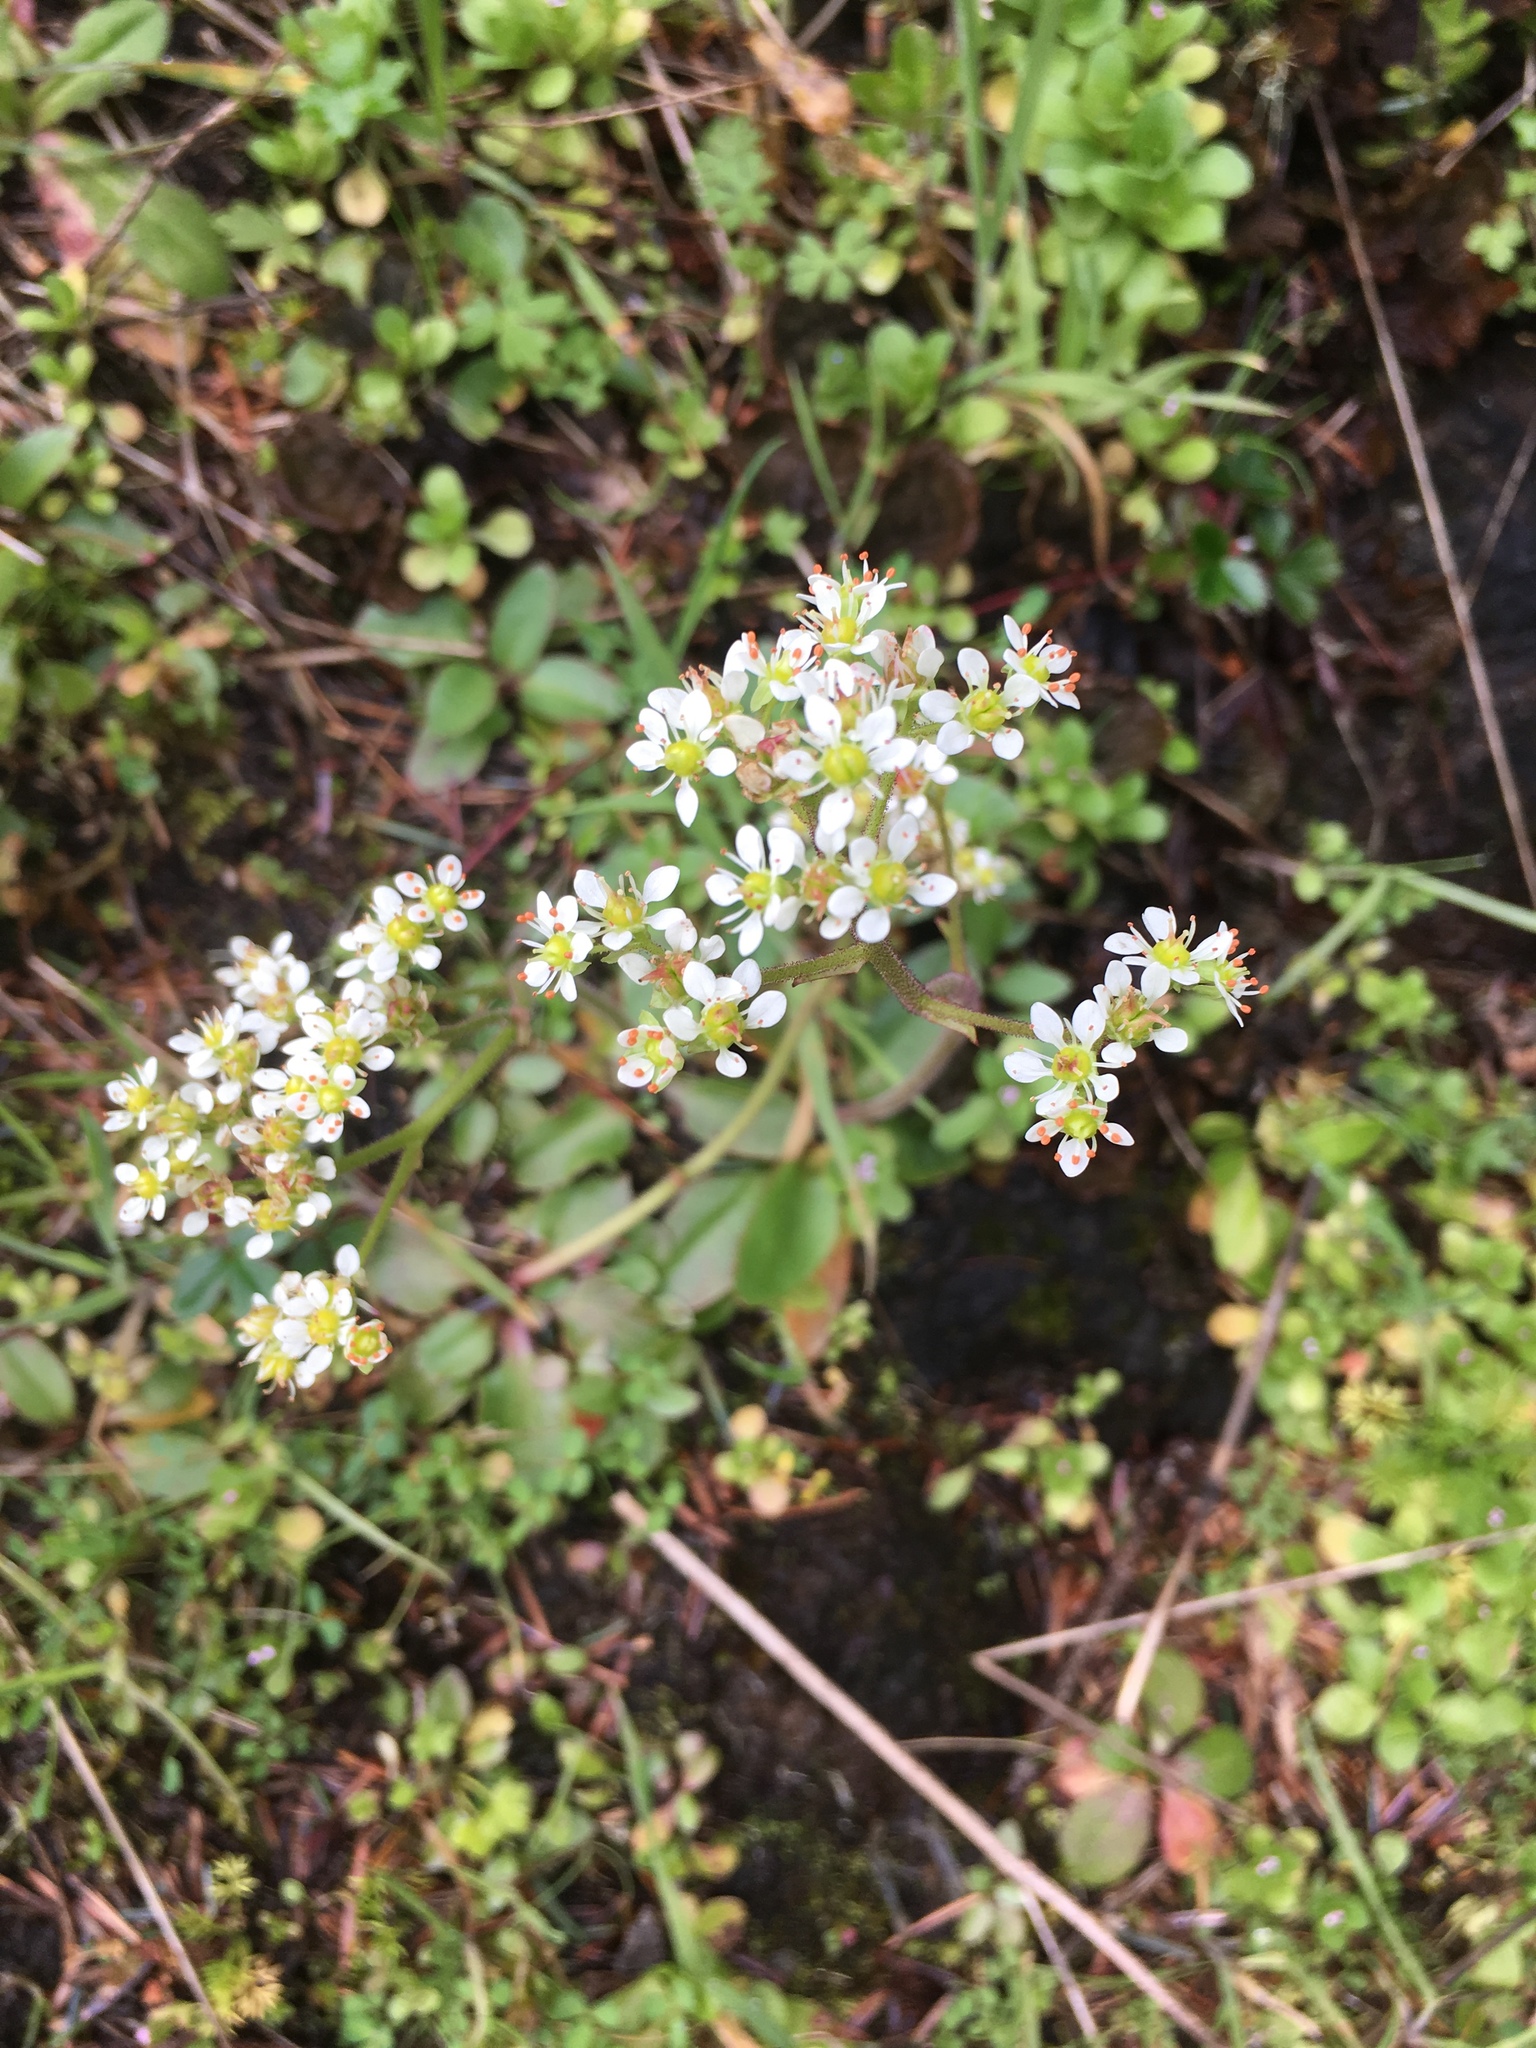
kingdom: Plantae
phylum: Tracheophyta
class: Magnoliopsida
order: Saxifragales
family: Saxifragaceae
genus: Micranthes
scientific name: Micranthes integrifolia
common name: Wholeleaf saxifrage
